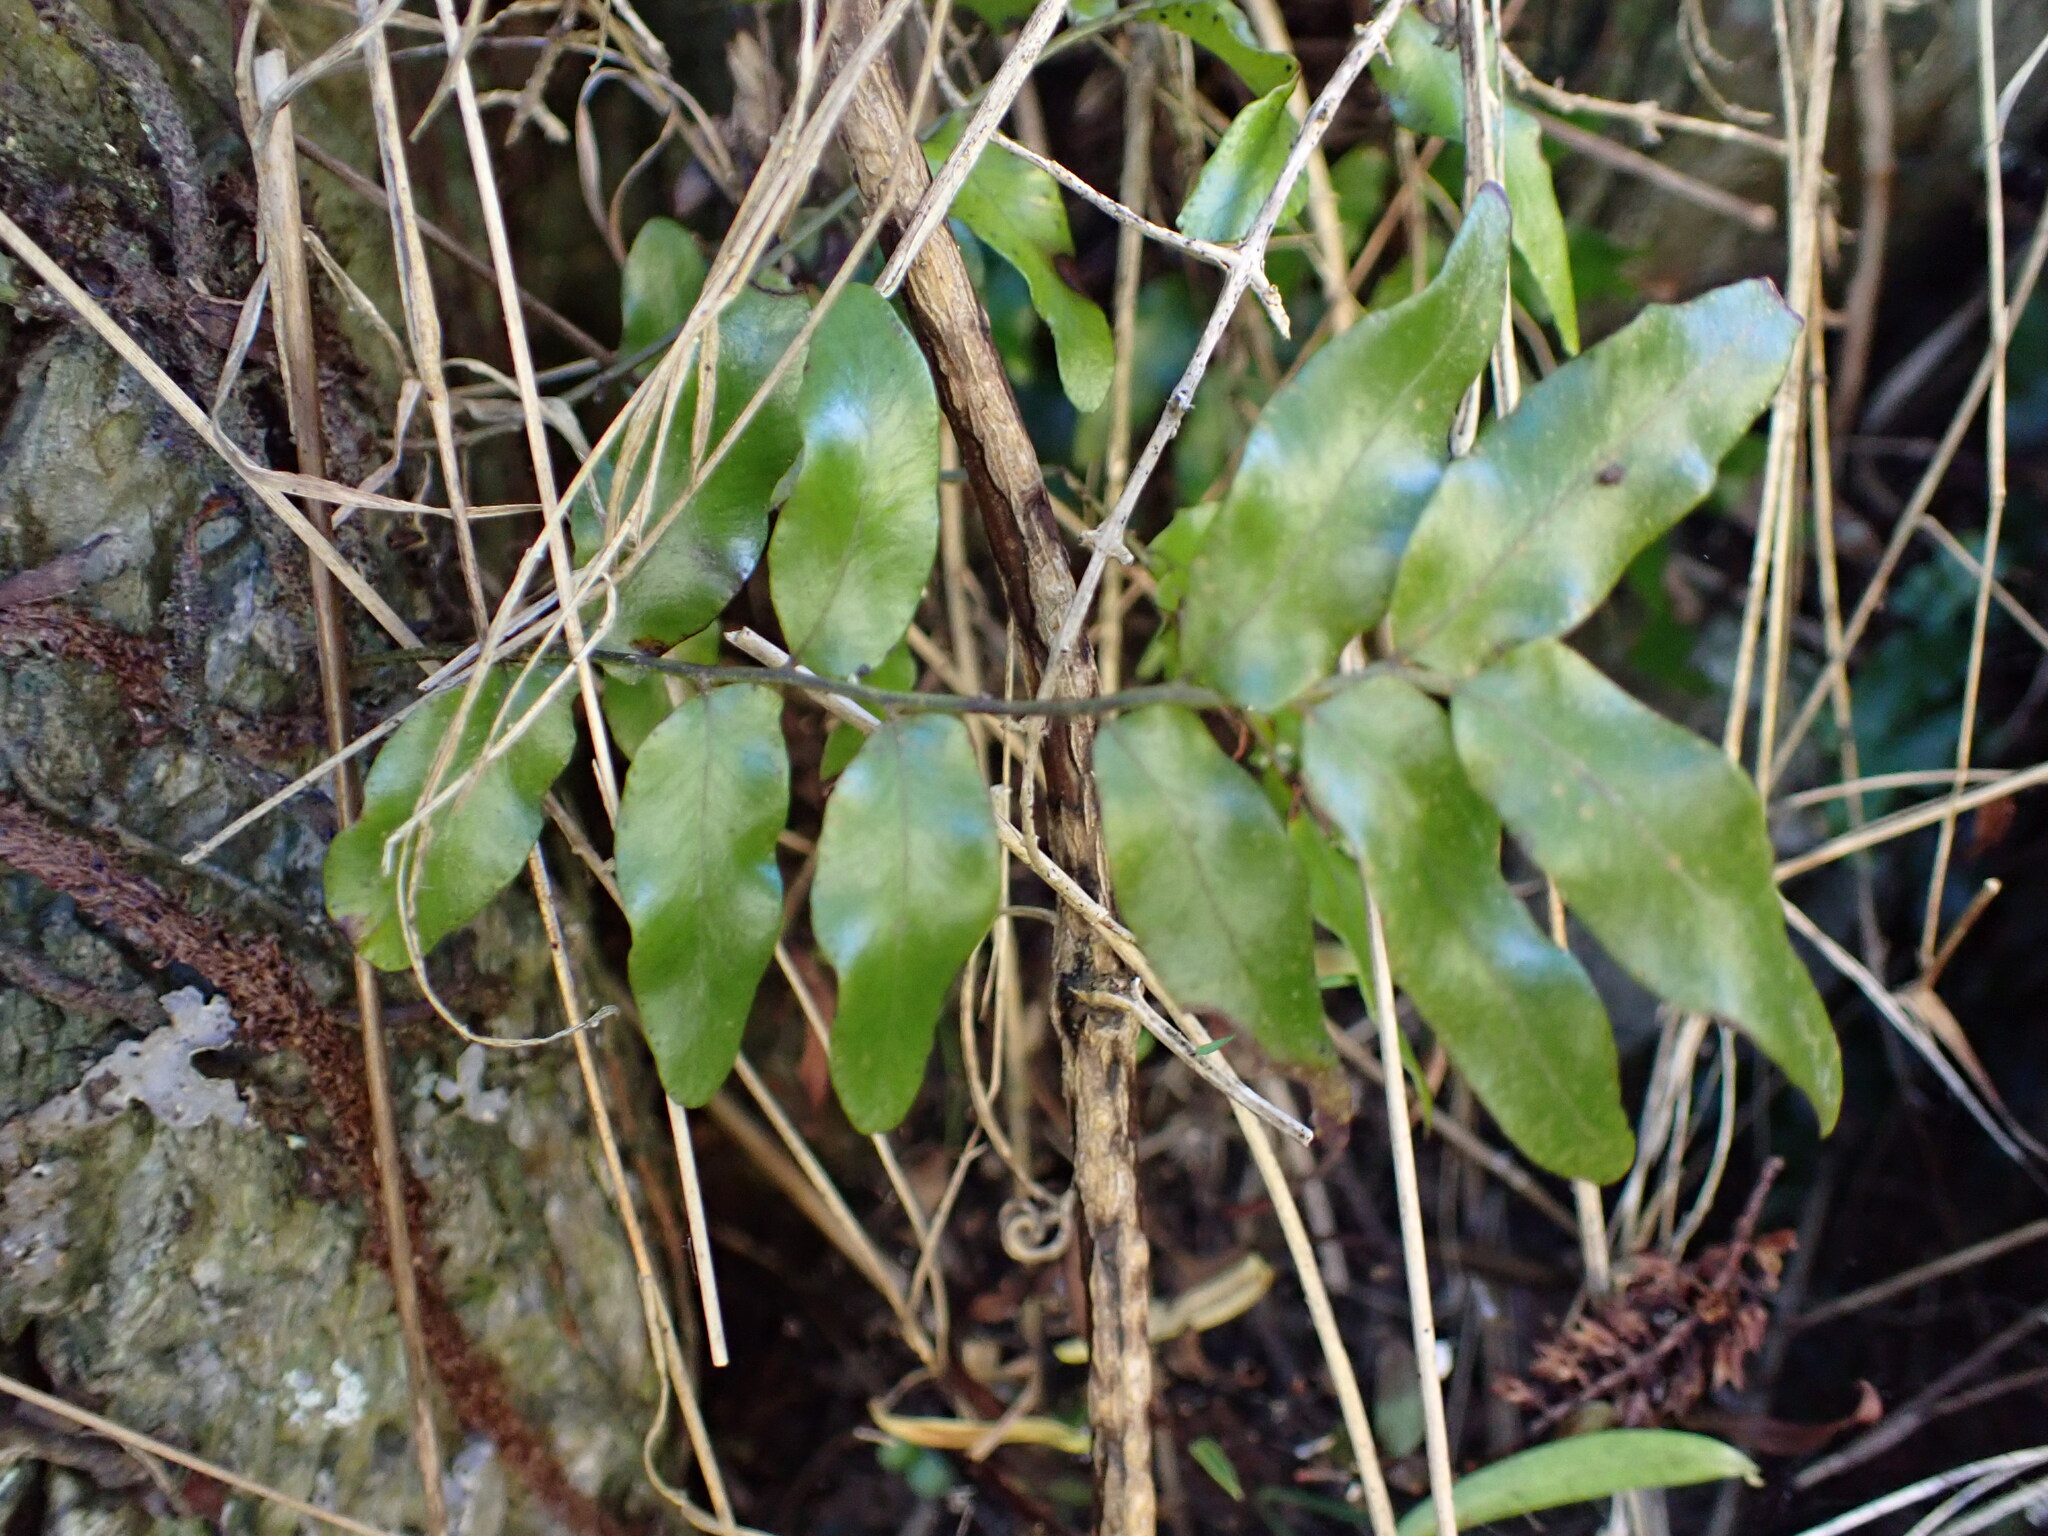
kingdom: Plantae
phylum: Tracheophyta
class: Polypodiopsida
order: Polypodiales
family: Tectariaceae
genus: Arthropteris
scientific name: Arthropteris tenella
